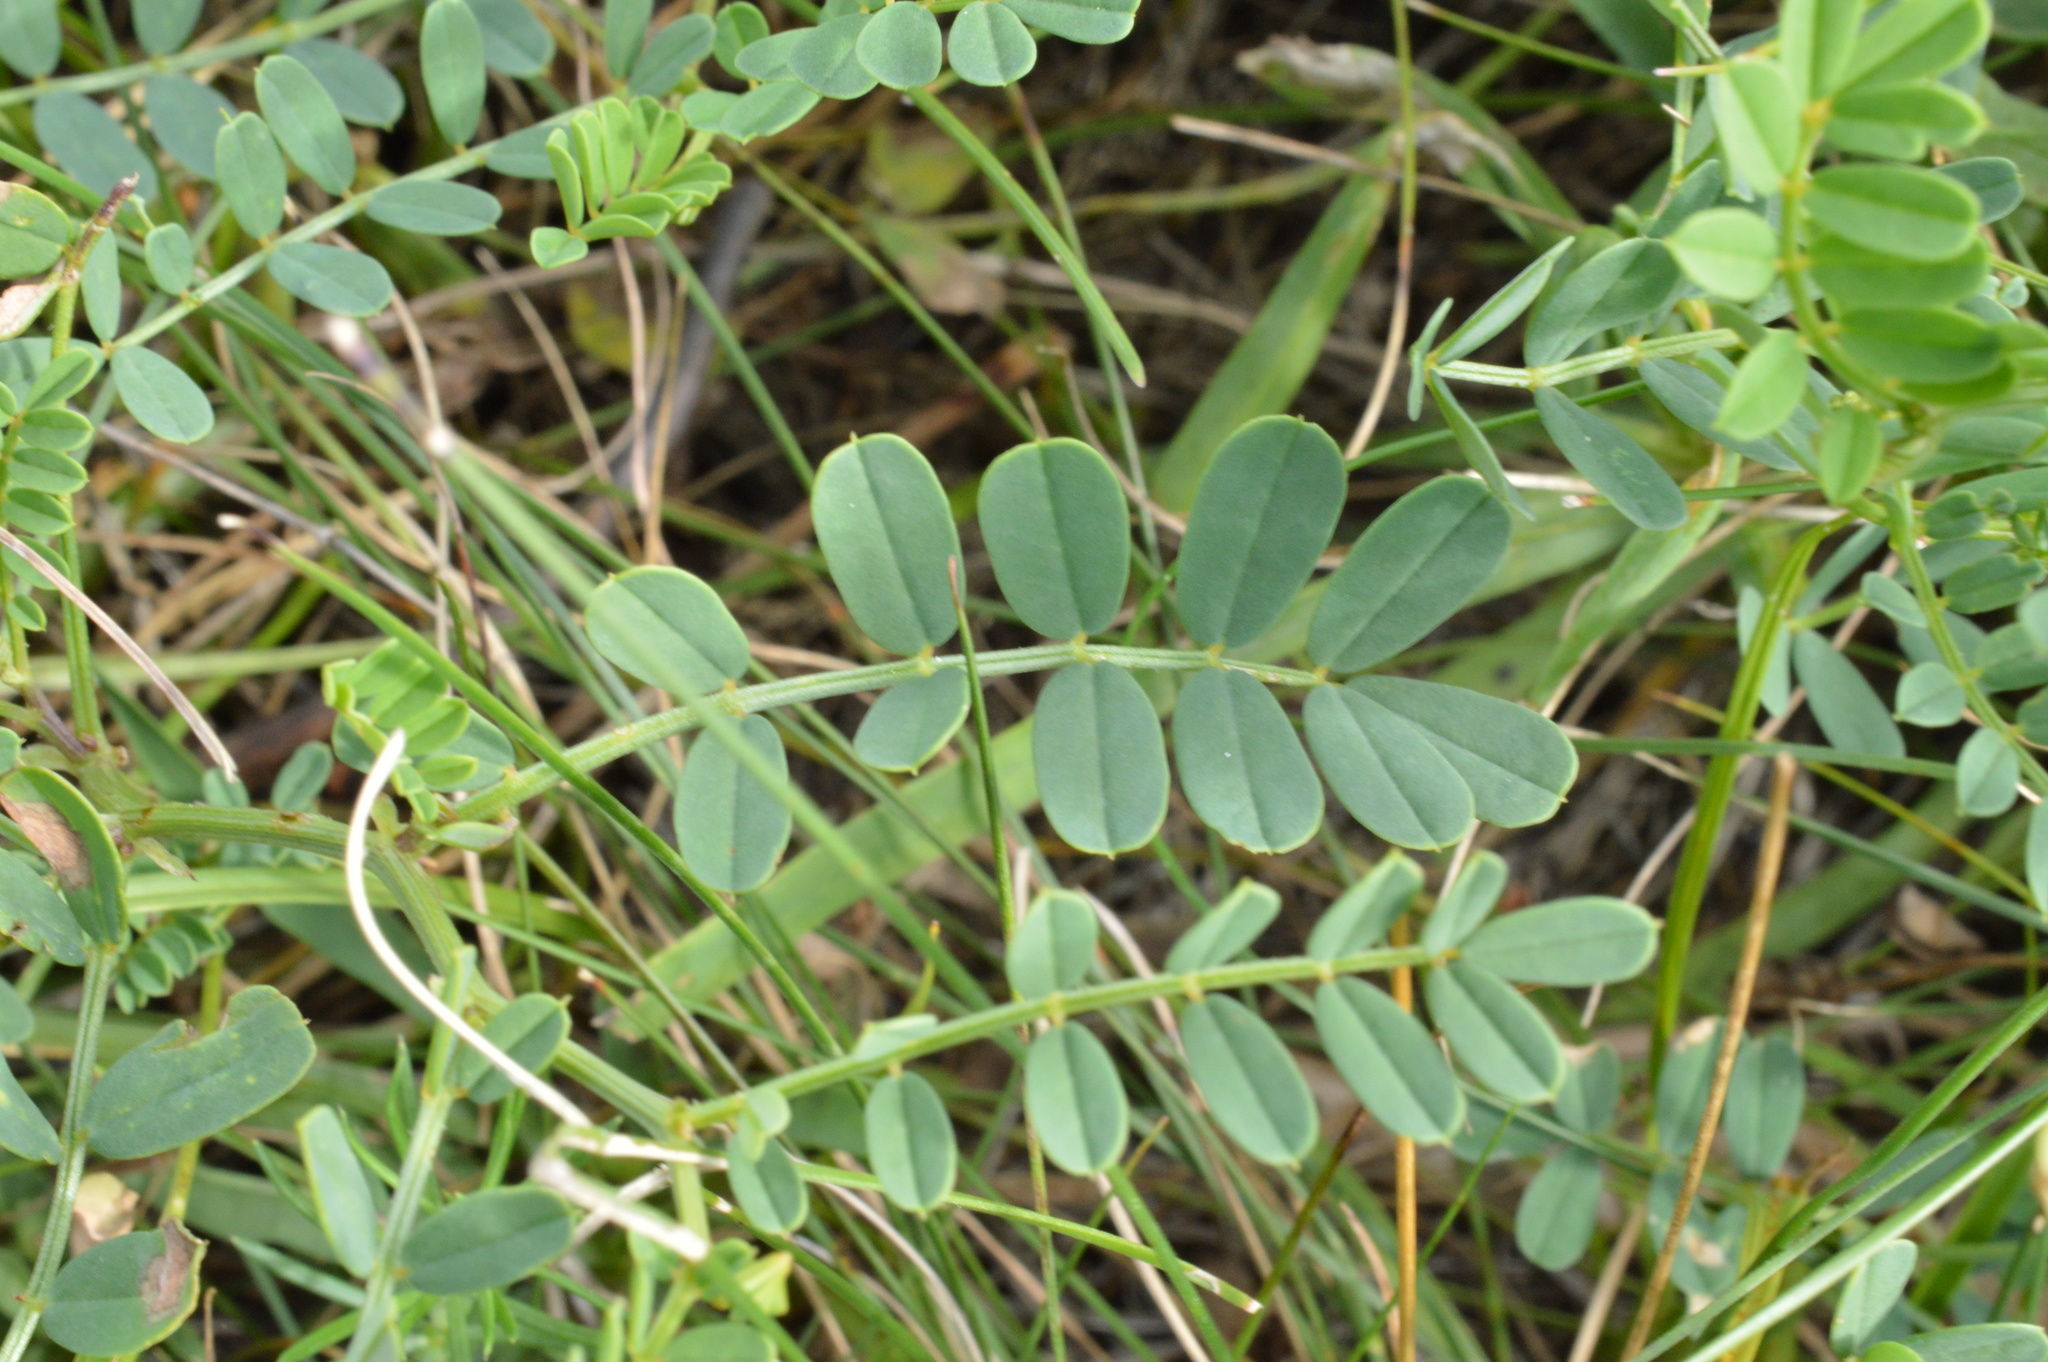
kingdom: Plantae
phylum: Tracheophyta
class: Magnoliopsida
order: Fabales
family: Fabaceae
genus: Coronilla
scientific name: Coronilla varia
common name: Crownvetch
